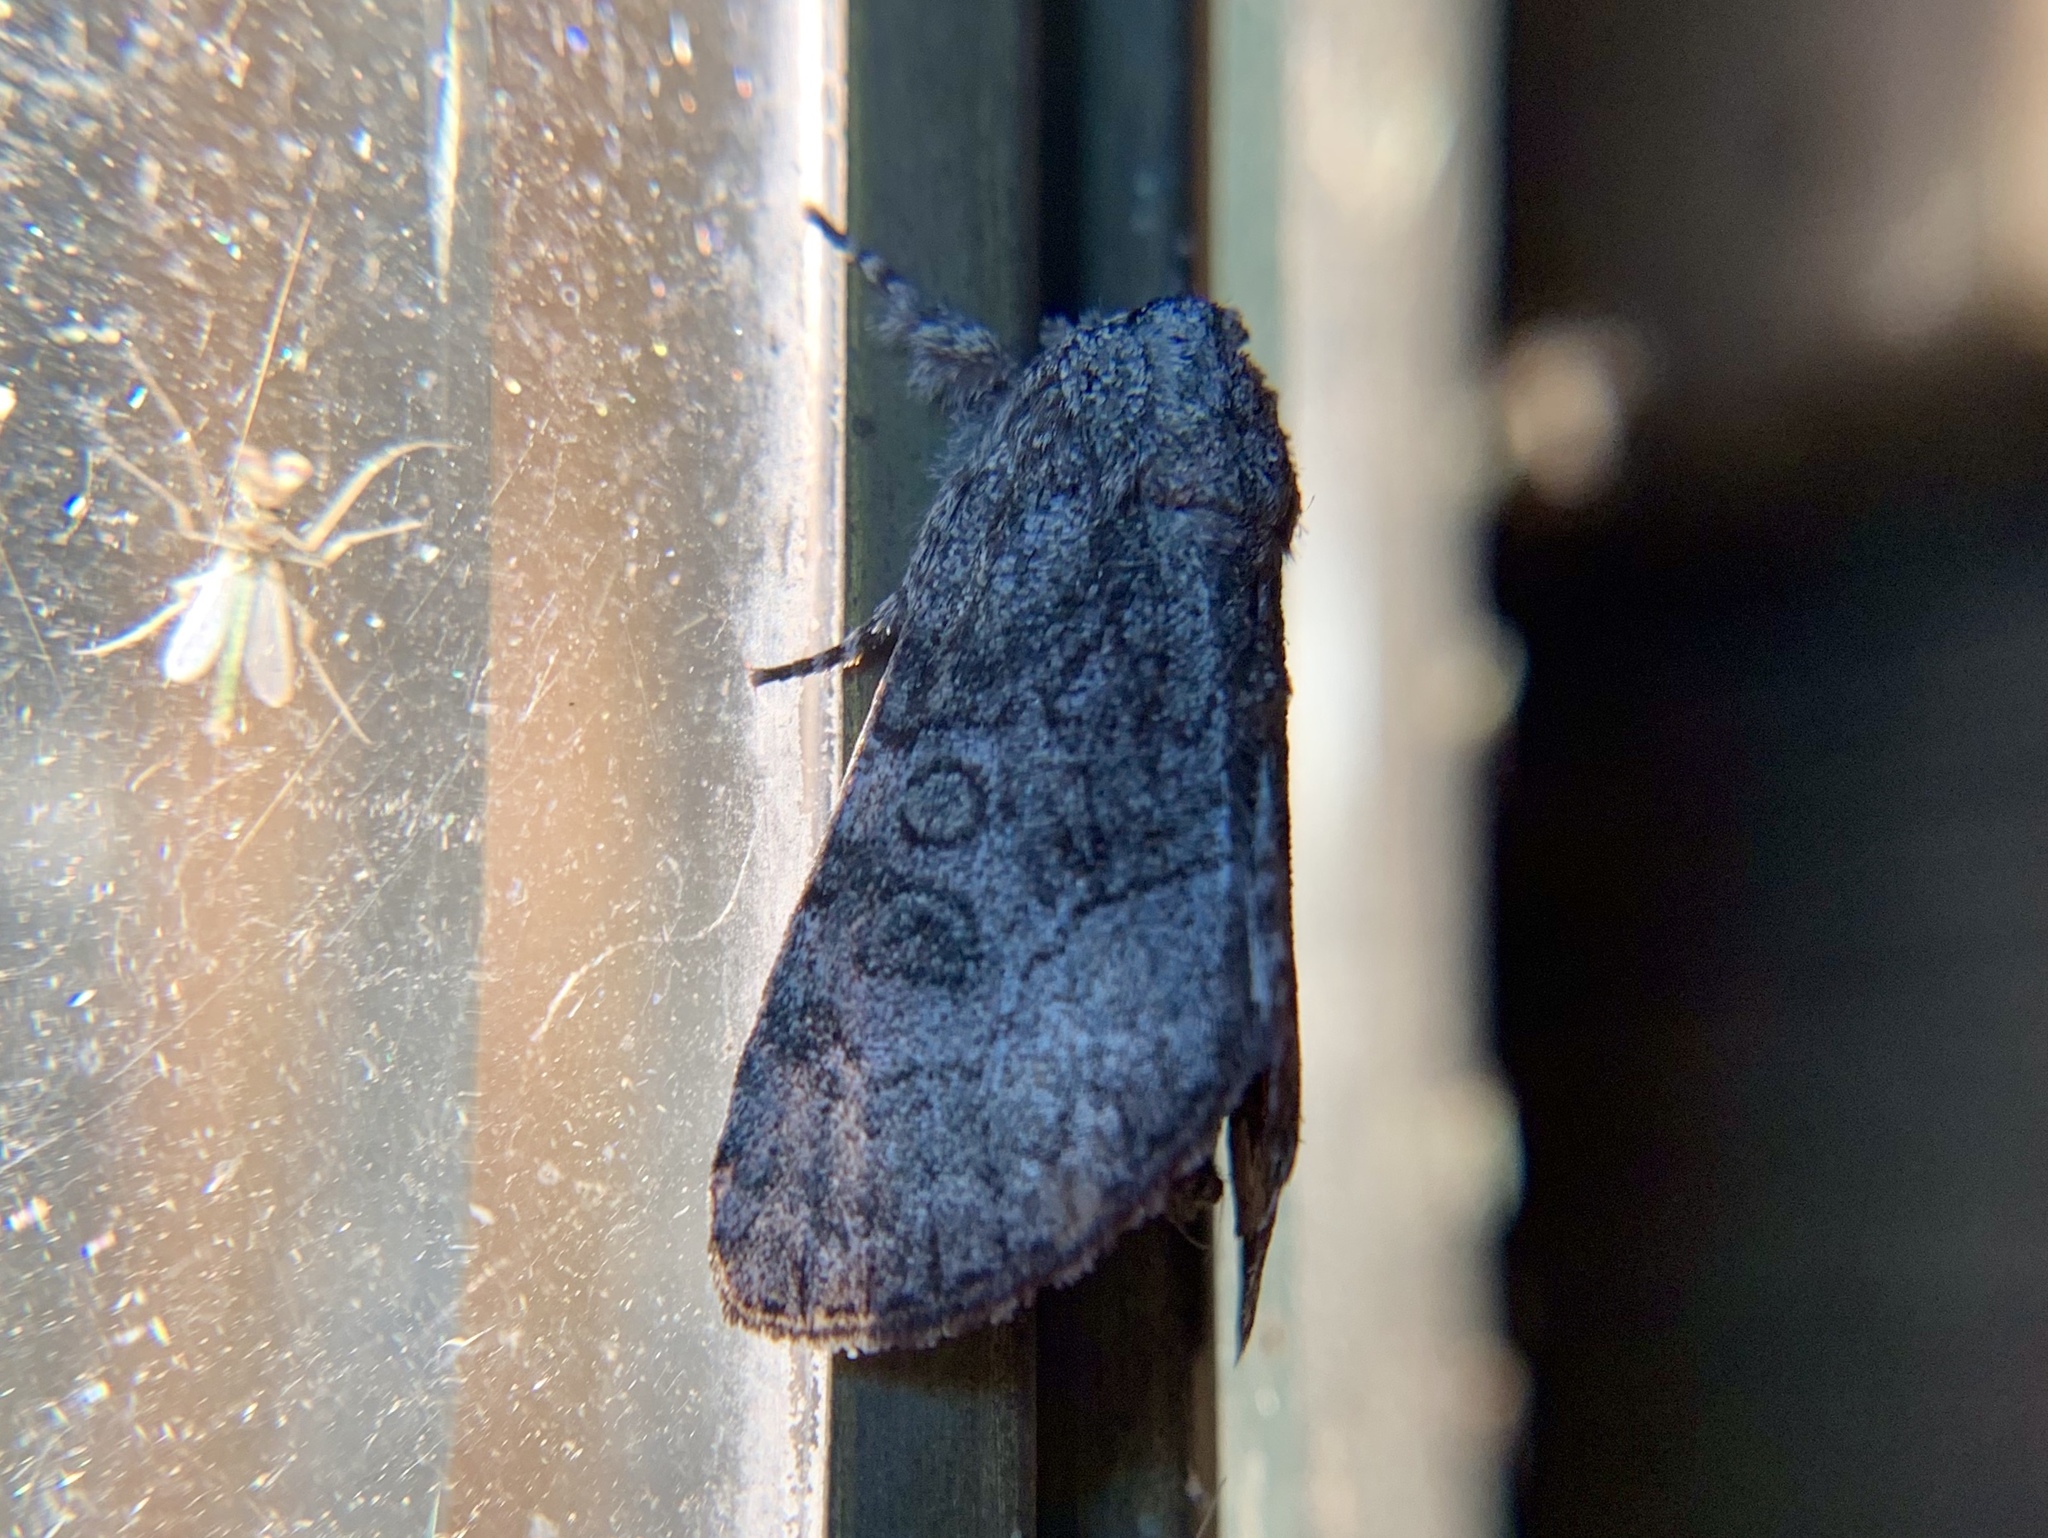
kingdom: Animalia
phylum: Arthropoda
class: Insecta
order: Lepidoptera
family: Noctuidae
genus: Raphia
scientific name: Raphia frater
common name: Brother
